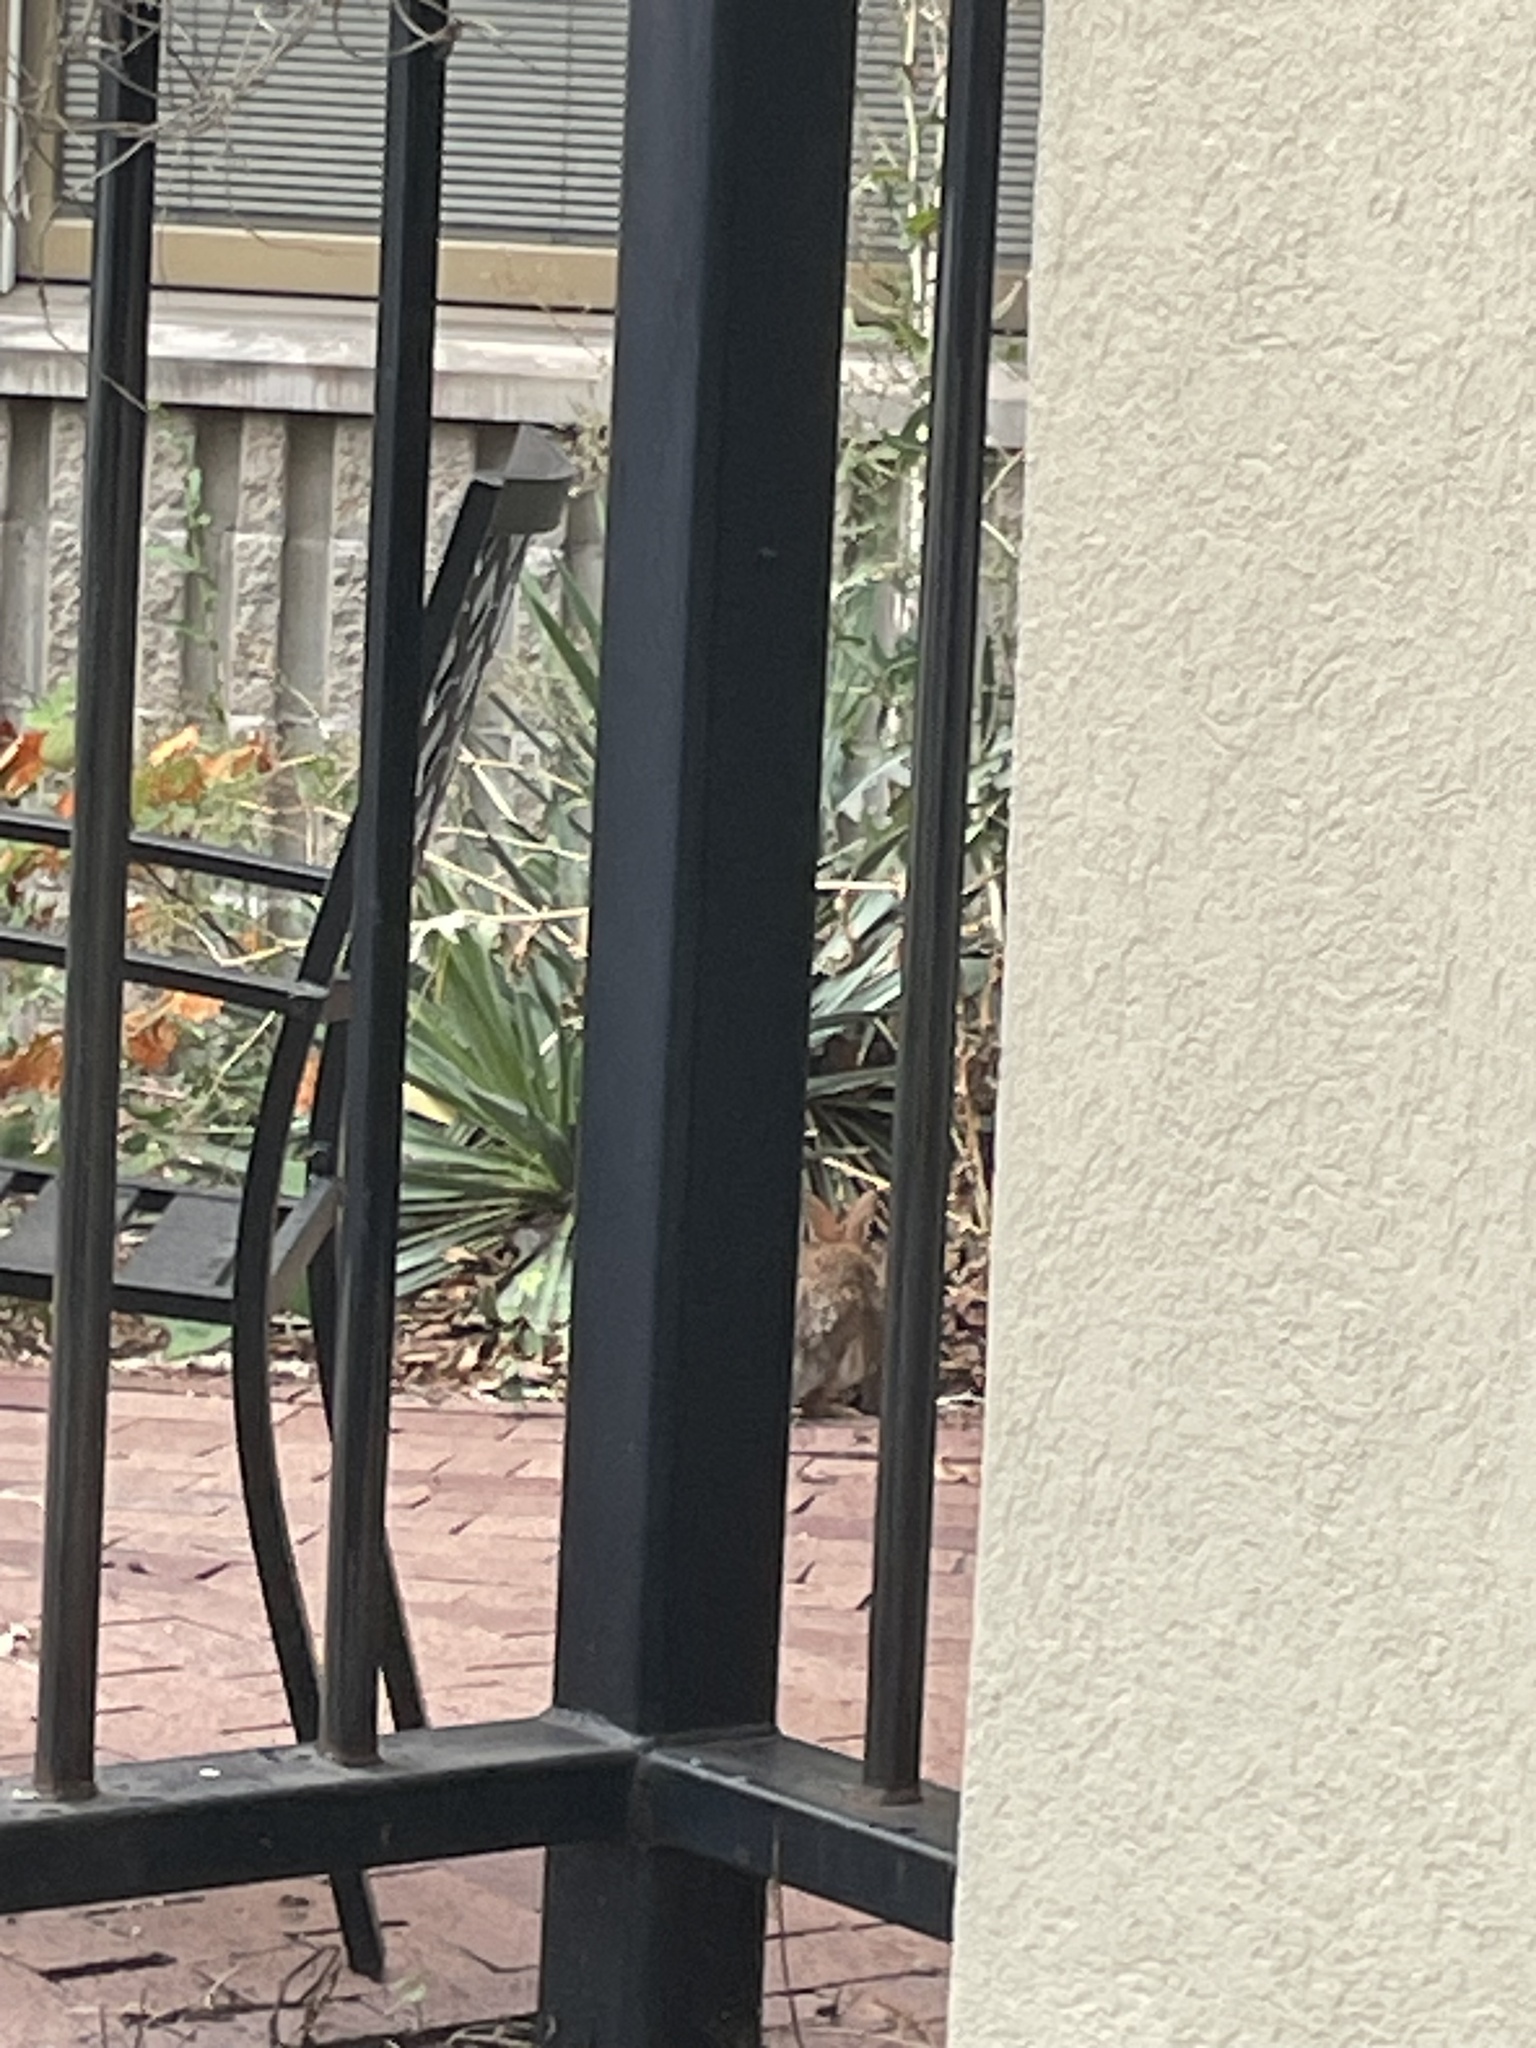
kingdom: Animalia
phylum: Chordata
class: Mammalia
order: Lagomorpha
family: Leporidae
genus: Sylvilagus
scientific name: Sylvilagus floridanus
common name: Eastern cottontail
